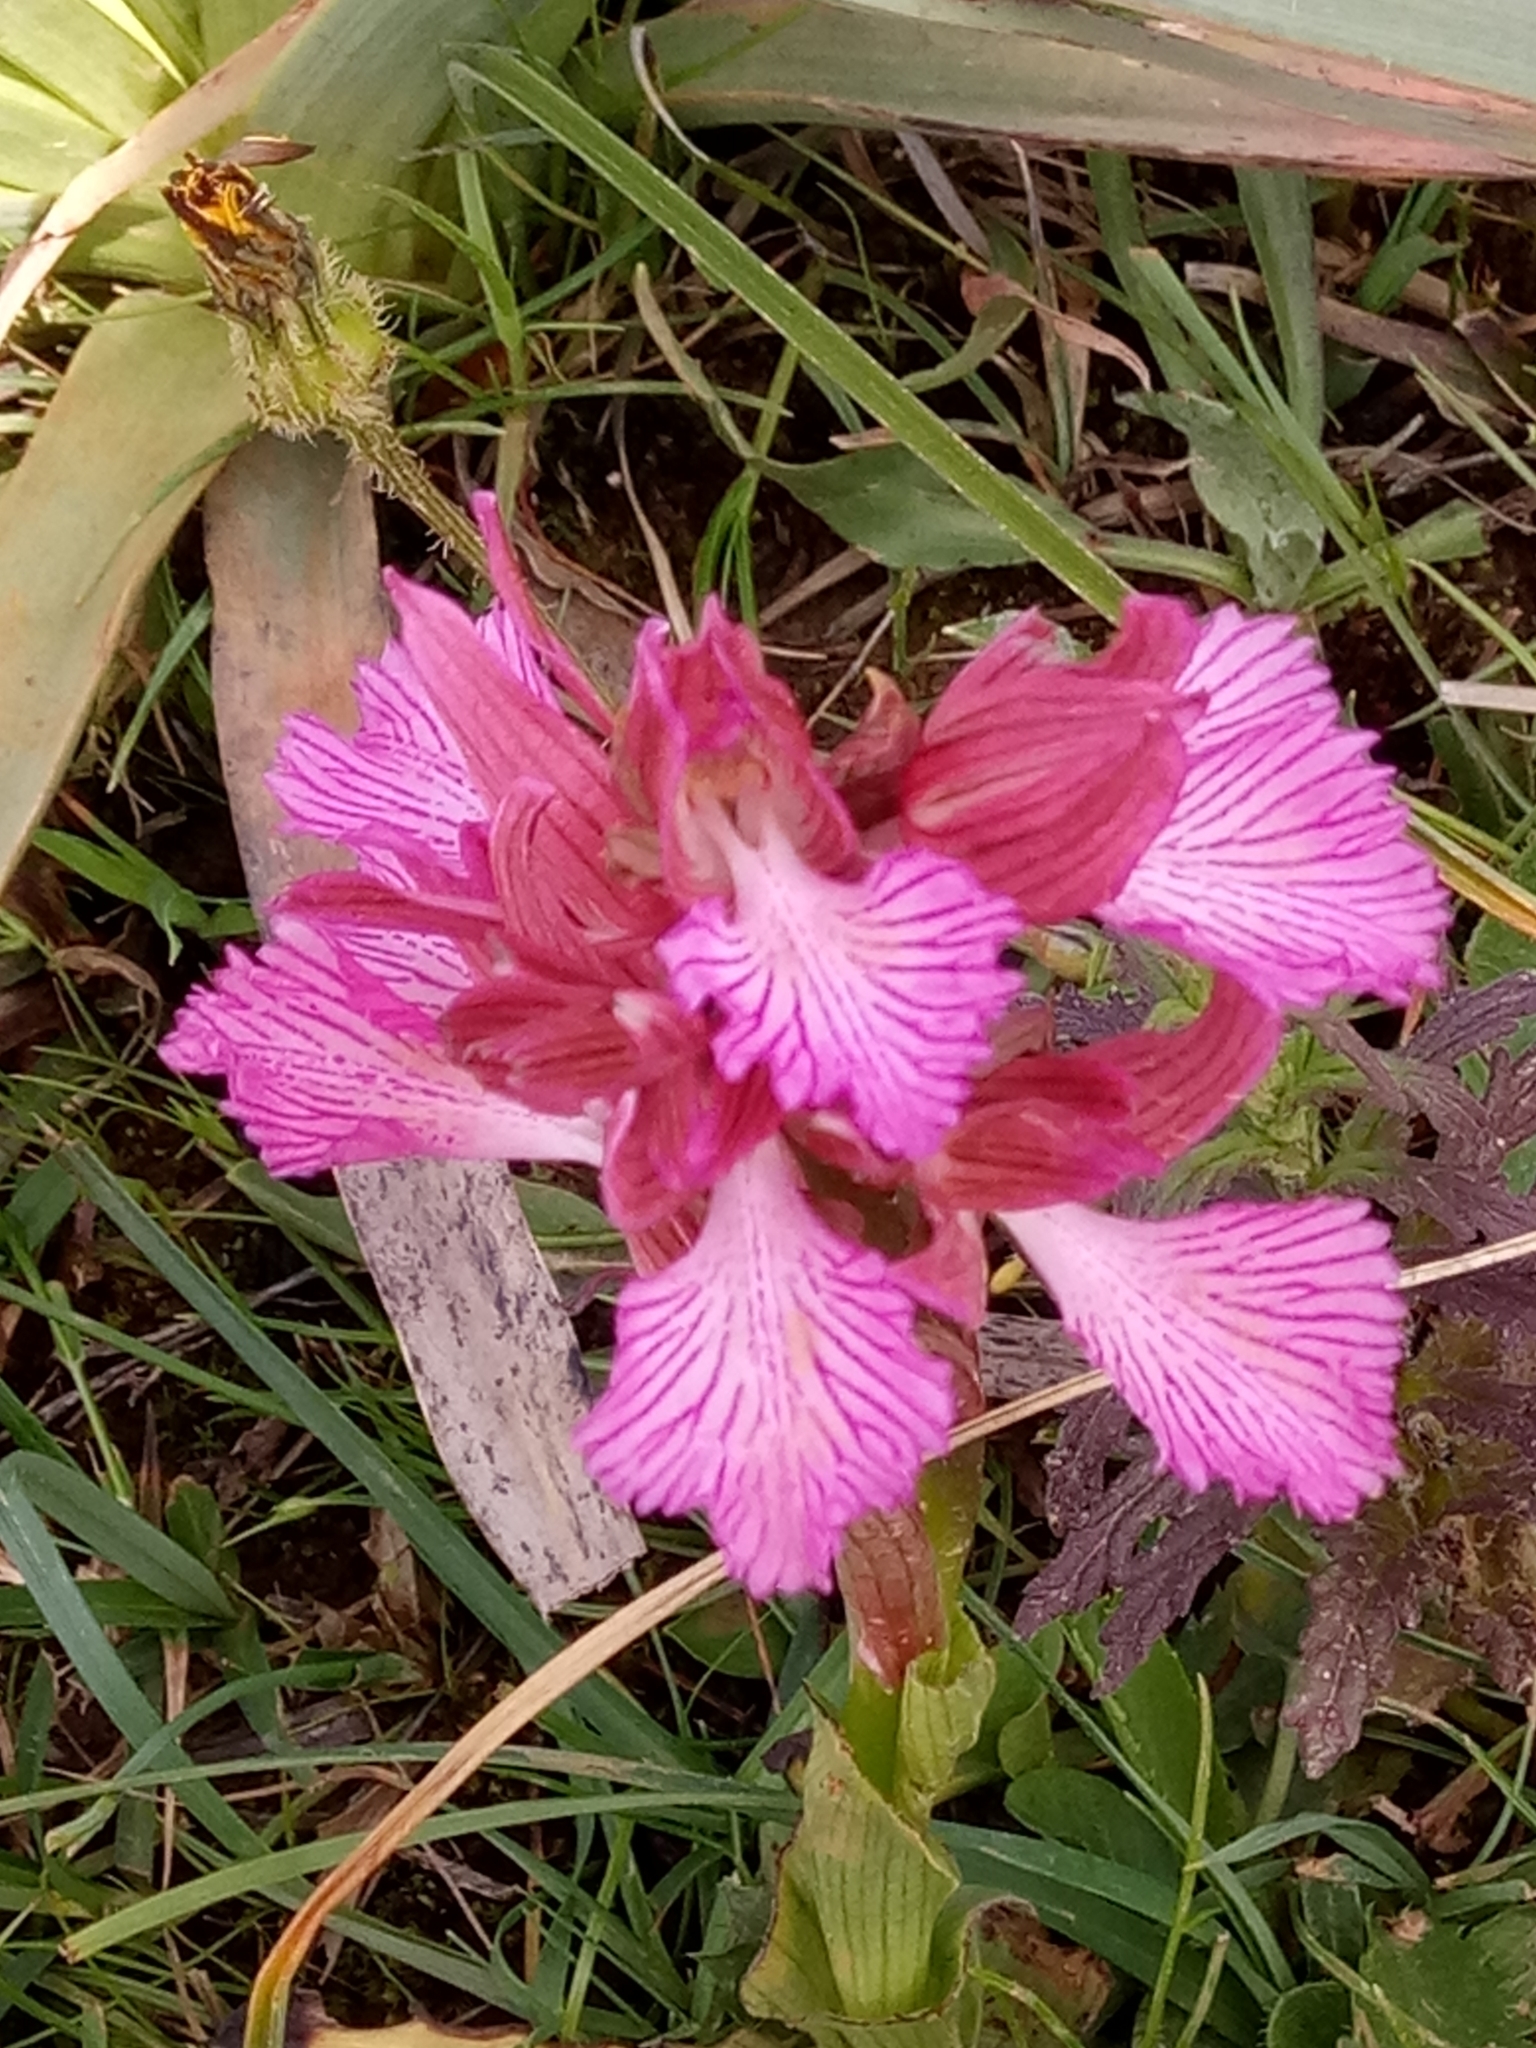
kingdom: Plantae
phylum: Tracheophyta
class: Liliopsida
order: Asparagales
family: Orchidaceae
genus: Anacamptis
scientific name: Anacamptis papilionacea
